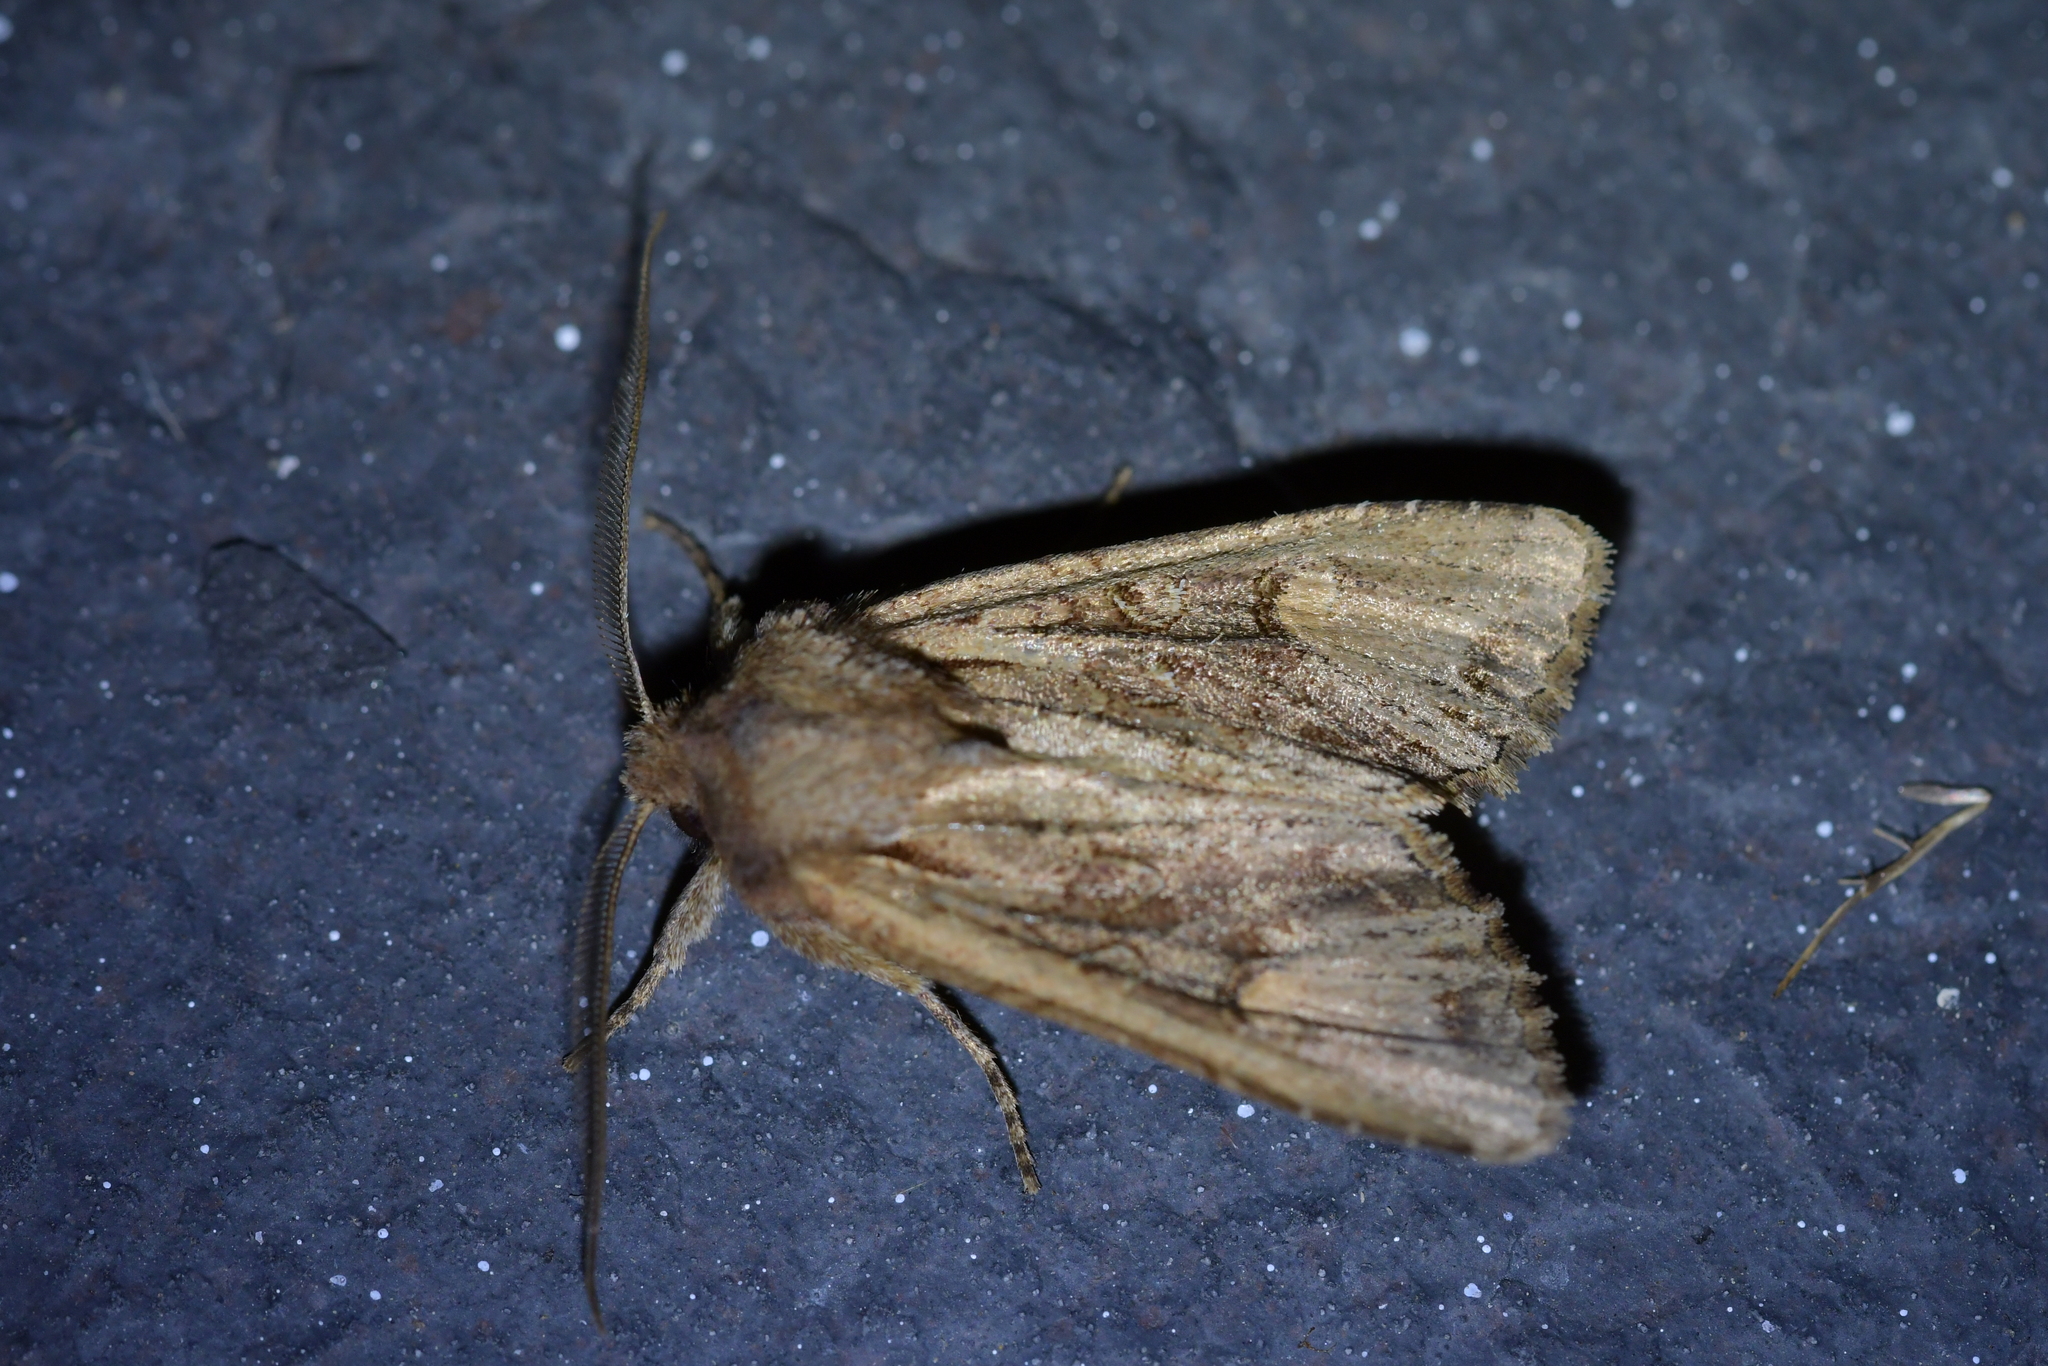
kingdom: Animalia
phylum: Arthropoda
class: Insecta
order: Lepidoptera
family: Noctuidae
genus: Ichneutica
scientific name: Ichneutica
